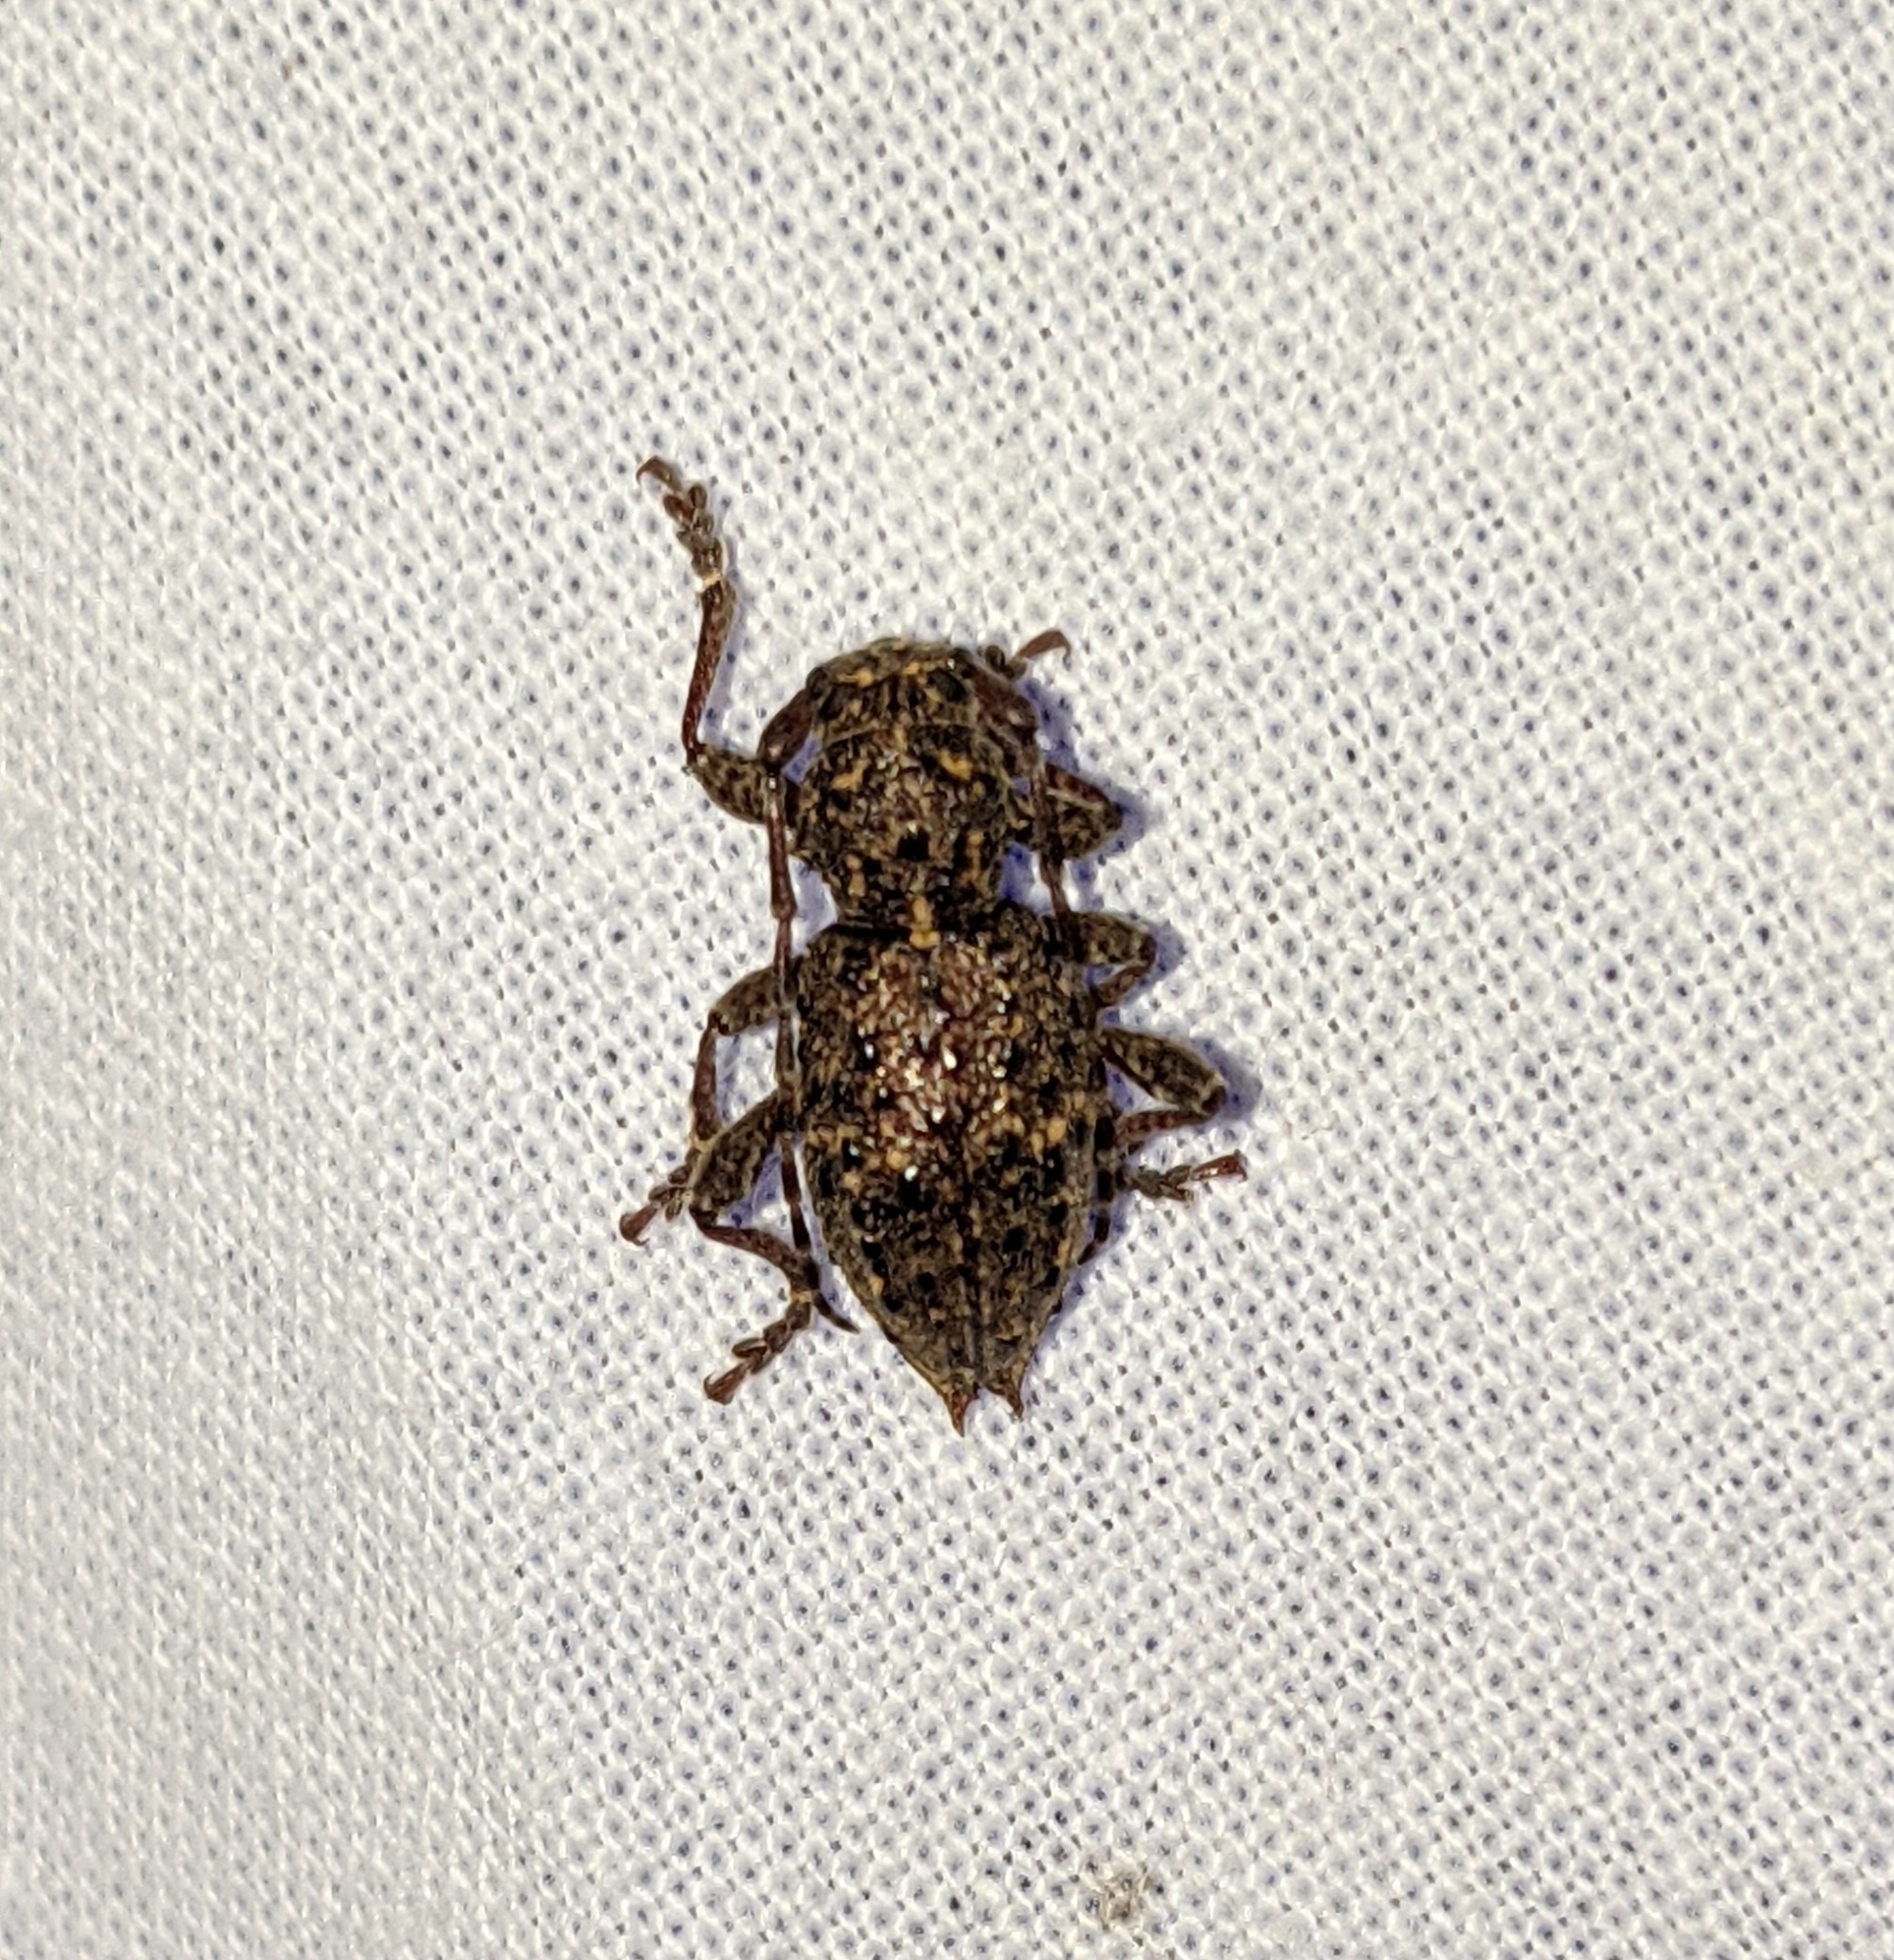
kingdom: Animalia
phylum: Arthropoda
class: Insecta
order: Coleoptera
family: Cerambycidae
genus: Plectrura
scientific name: Plectrura spinicauda
